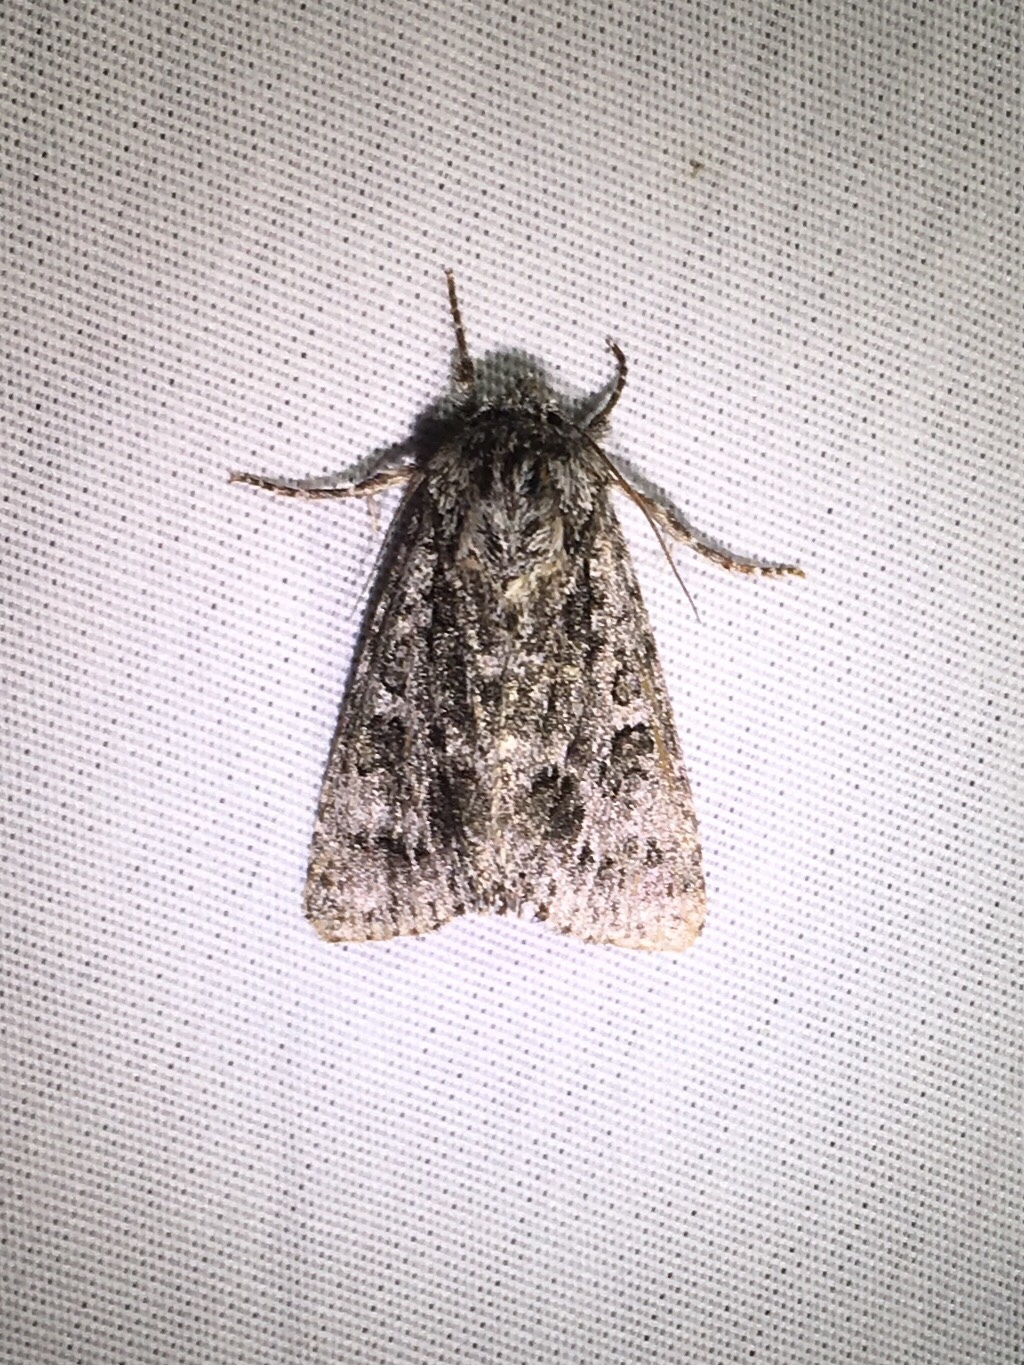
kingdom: Animalia
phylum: Arthropoda
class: Insecta
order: Lepidoptera
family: Noctuidae
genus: Acronicta
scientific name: Acronicta impressa
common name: Impressed dagger
